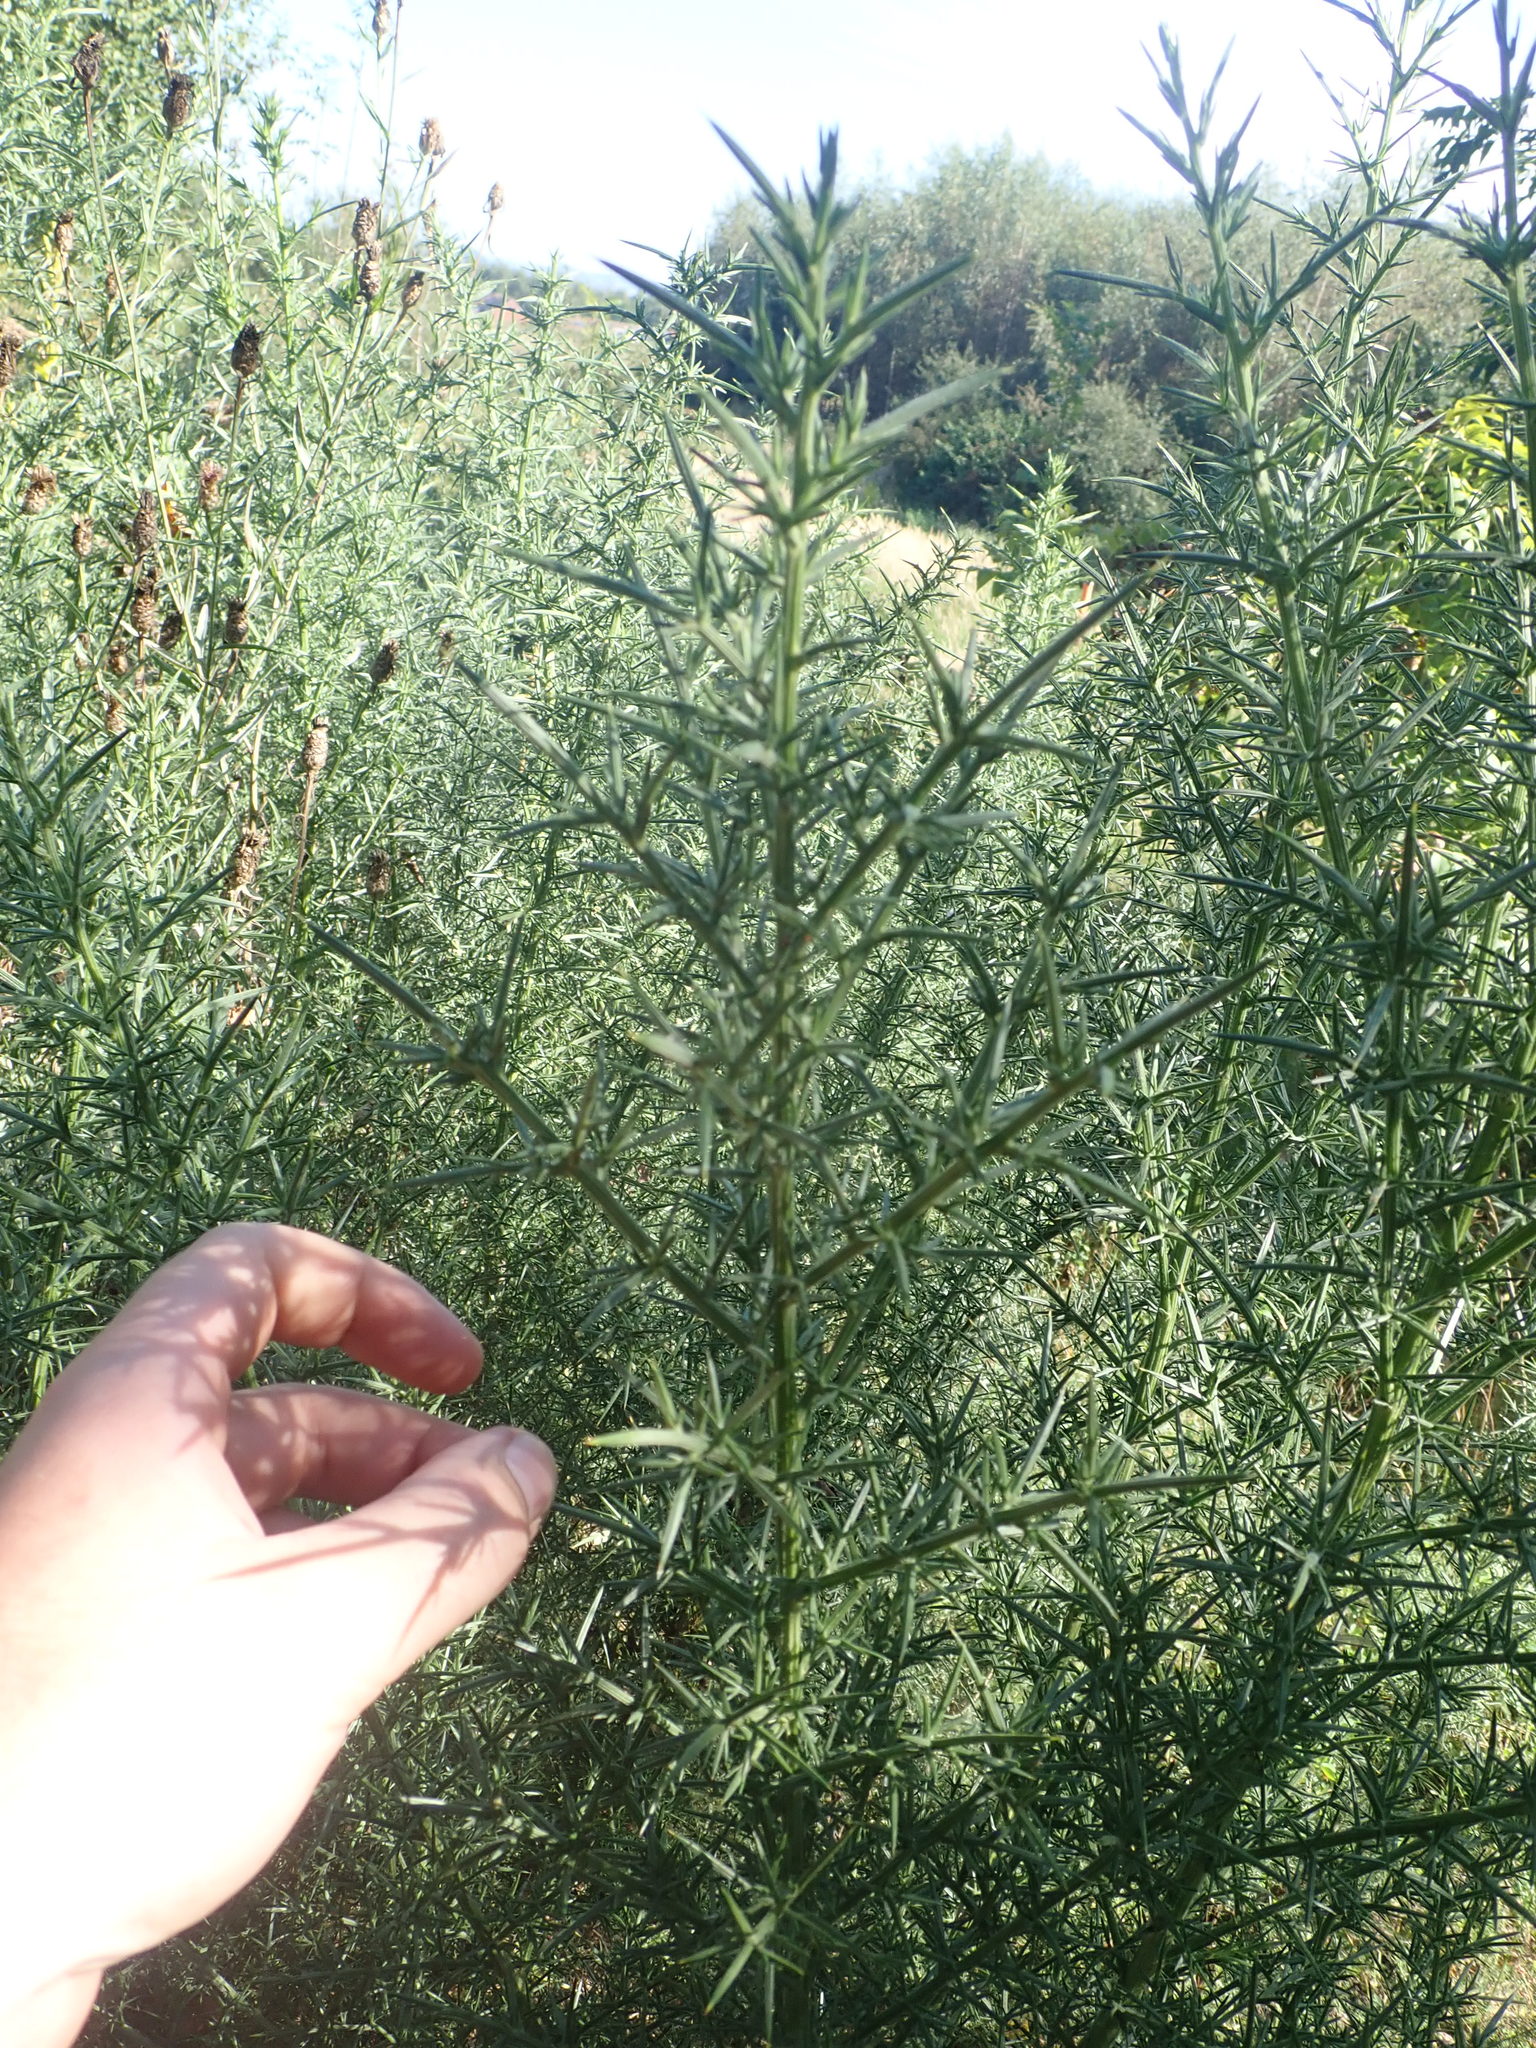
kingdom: Plantae
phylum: Tracheophyta
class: Magnoliopsida
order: Fabales
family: Fabaceae
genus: Ulex
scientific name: Ulex europaeus
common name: Common gorse
